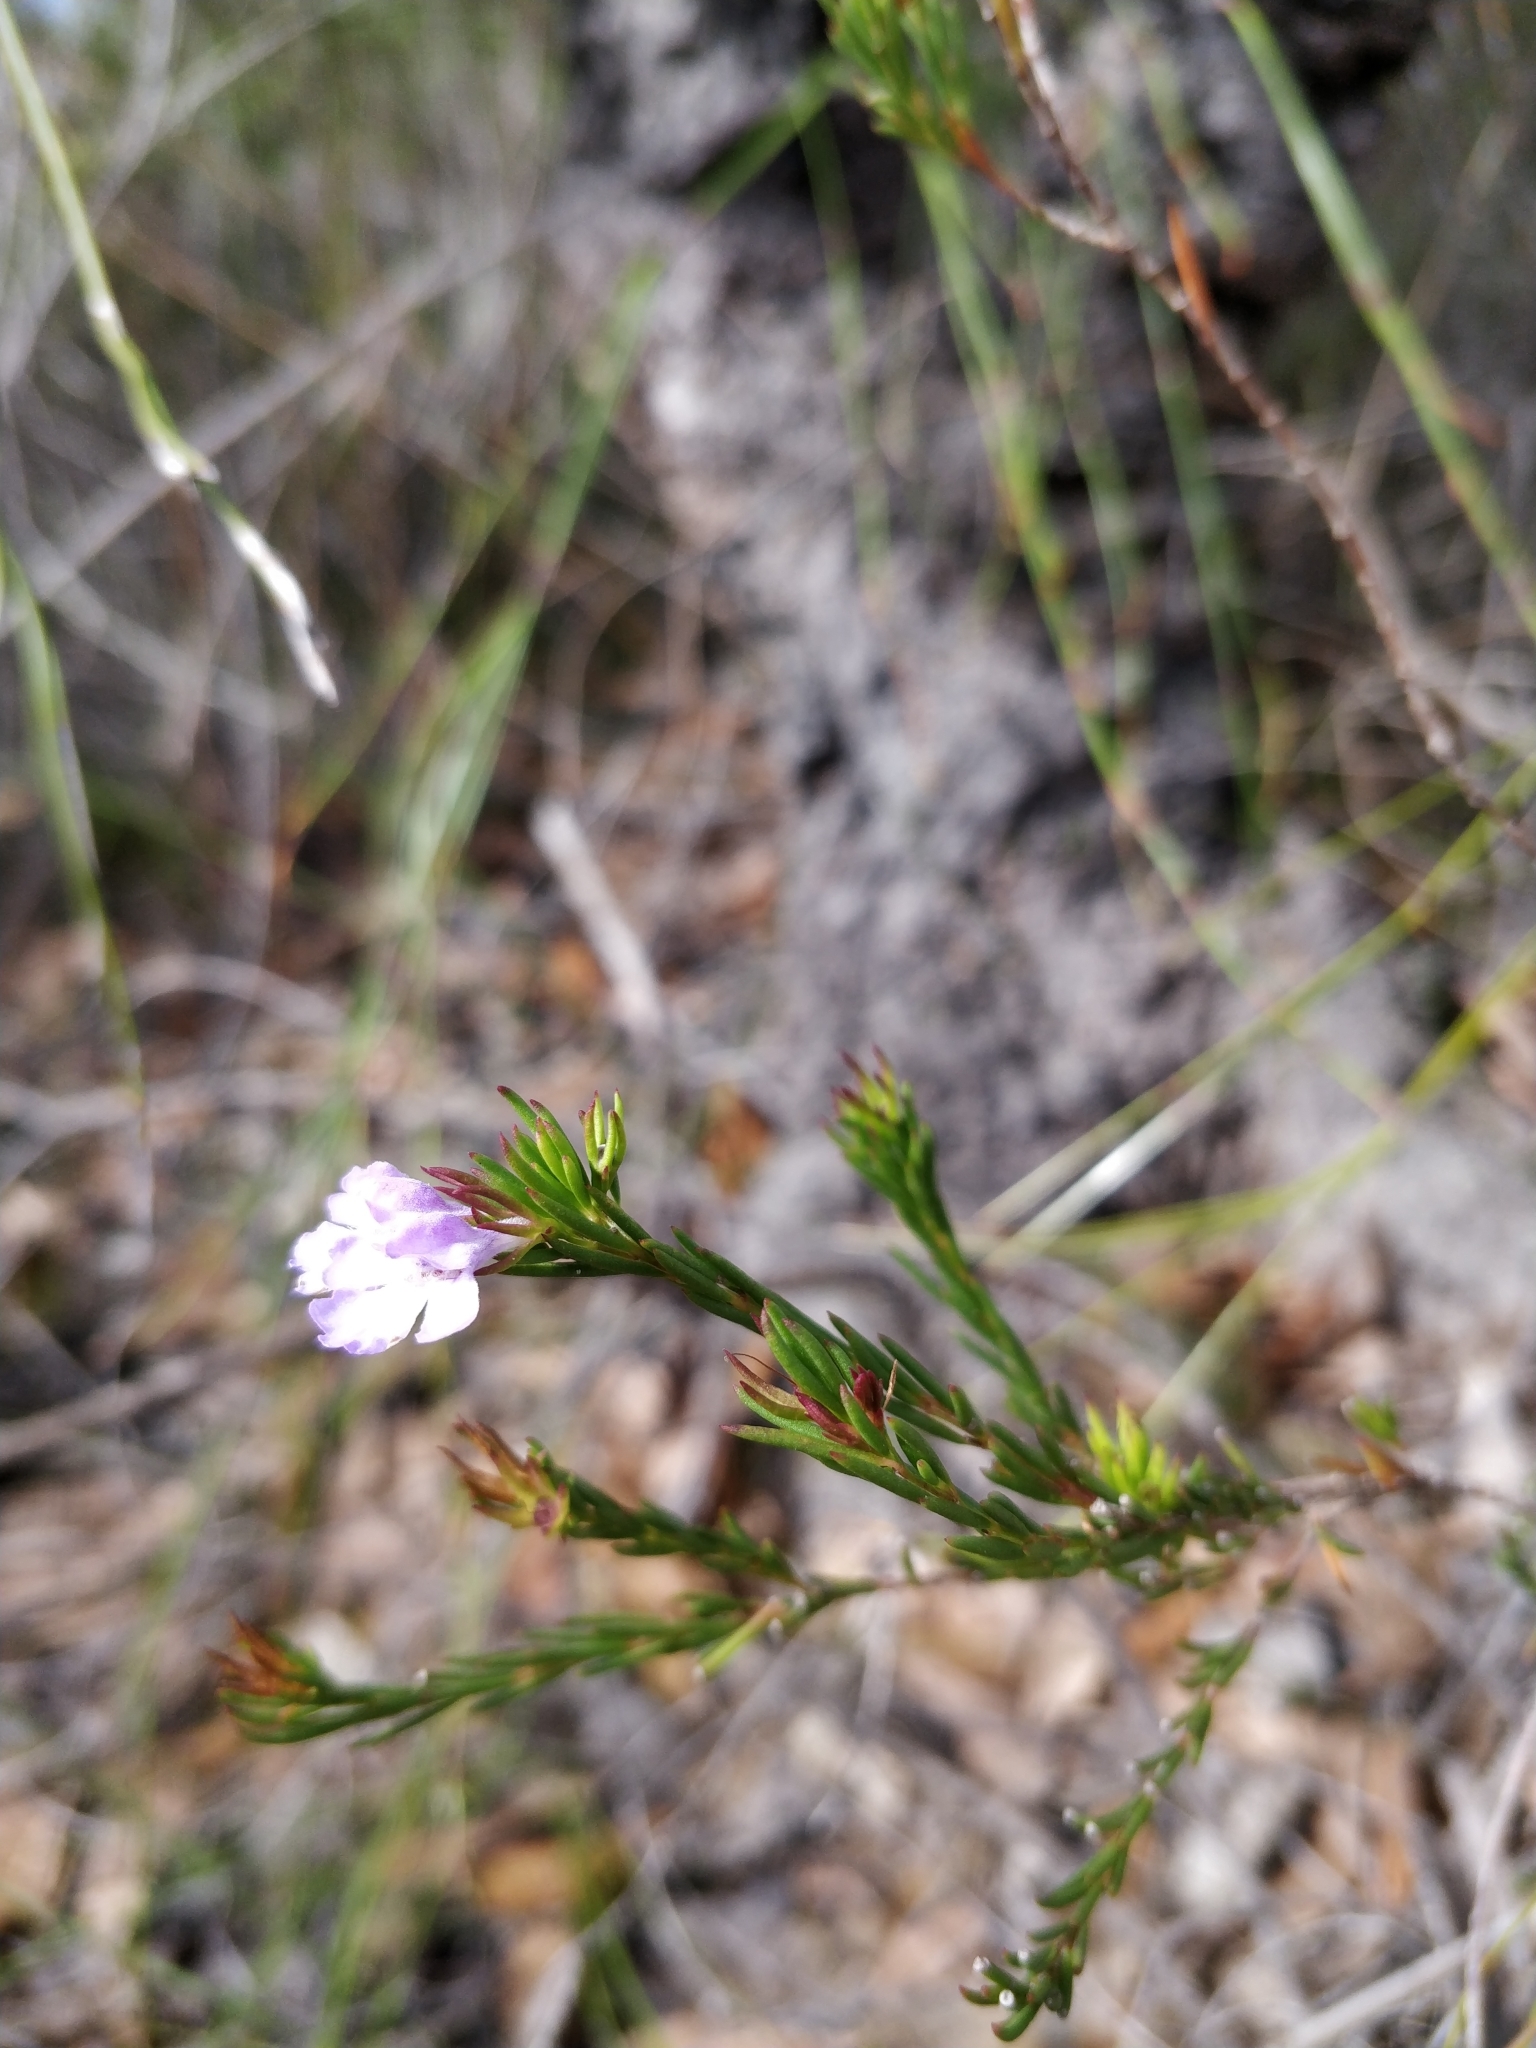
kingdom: Plantae
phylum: Tracheophyta
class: Magnoliopsida
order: Lamiales
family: Lamiaceae
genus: Hemigenia
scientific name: Hemigenia purpurea
